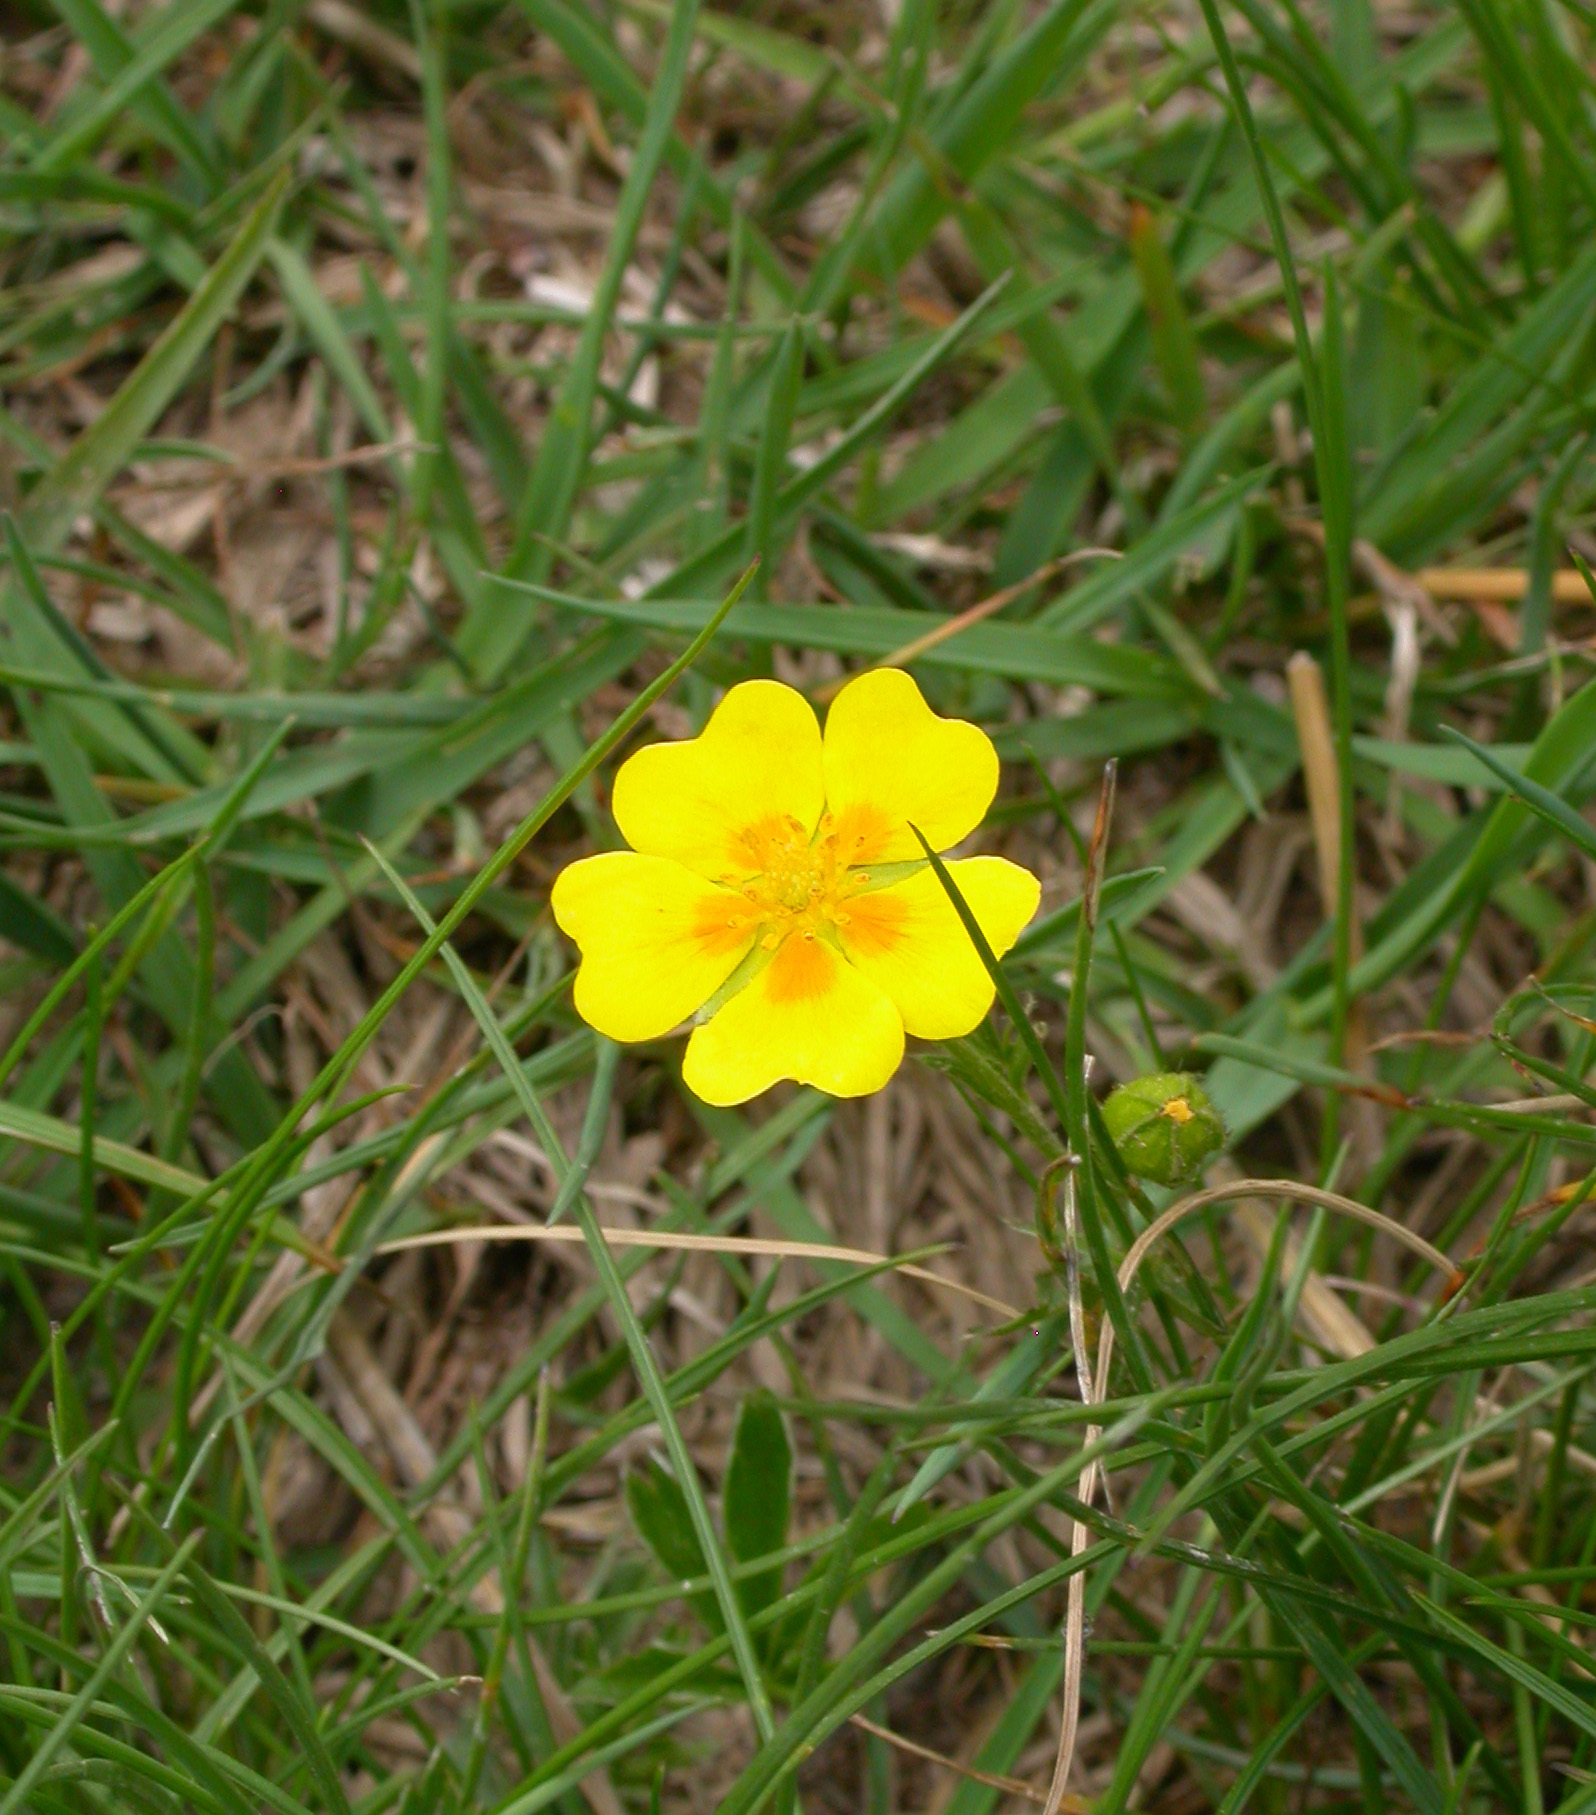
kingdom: Plantae
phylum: Tracheophyta
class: Magnoliopsida
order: Rosales
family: Rosaceae
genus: Potentilla
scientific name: Potentilla aurea
